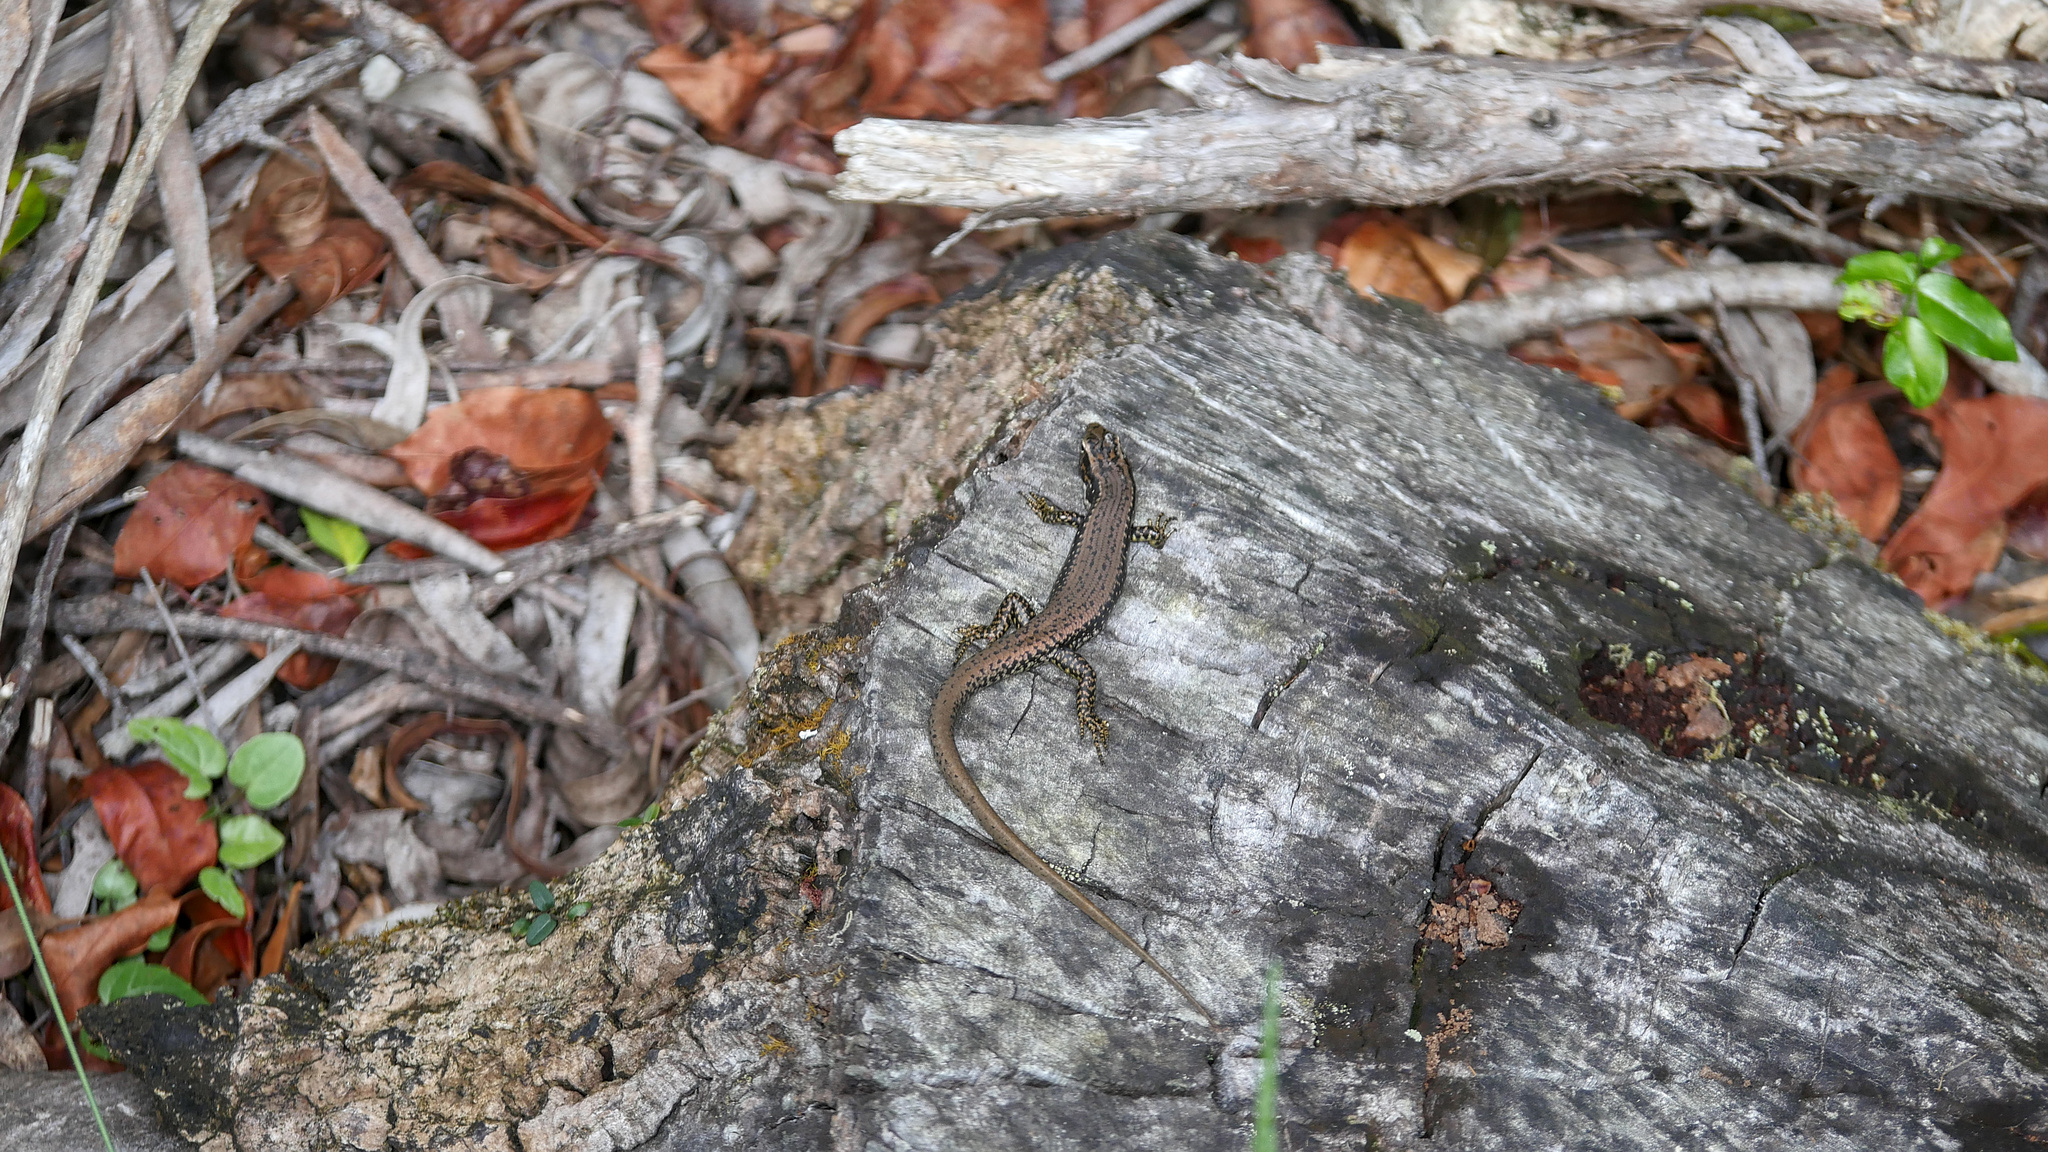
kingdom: Animalia
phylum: Chordata
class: Squamata
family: Scincidae
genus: Eulamprus
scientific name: Eulamprus heatwolei
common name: Warm-temperate water-skink
